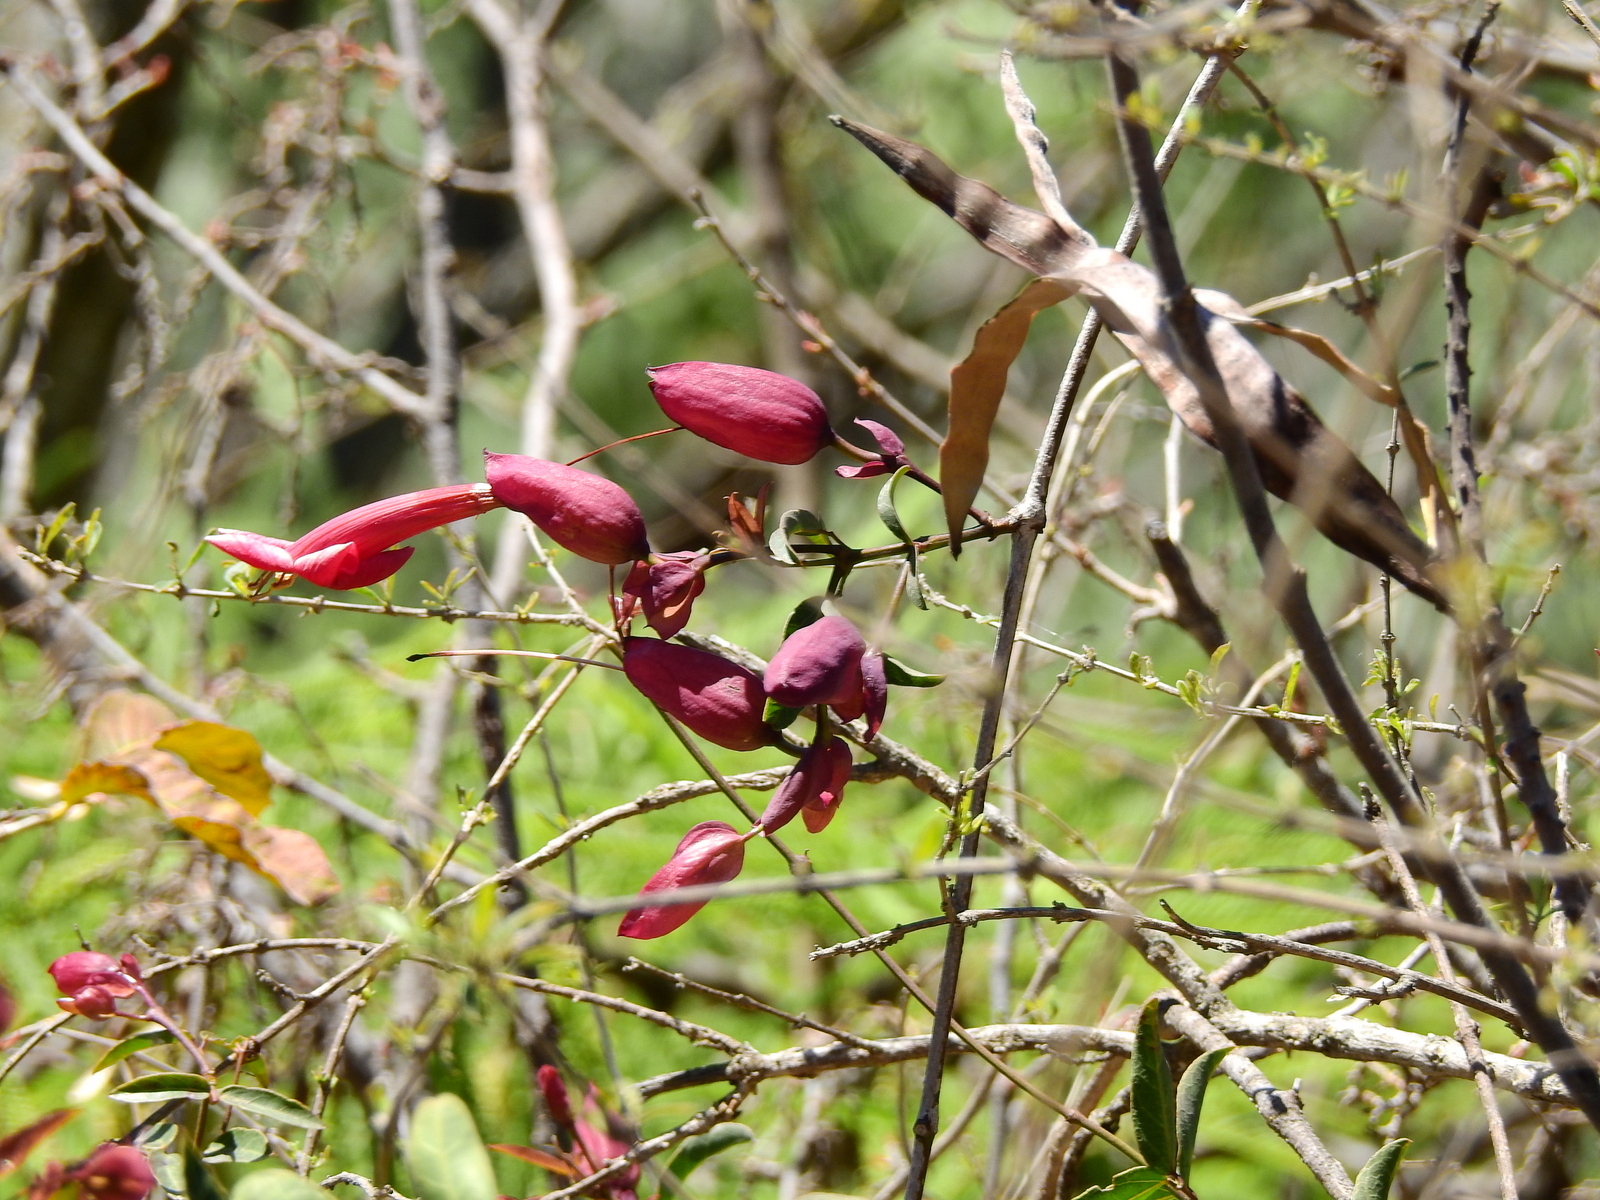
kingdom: Plantae
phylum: Tracheophyta
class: Magnoliopsida
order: Lamiales
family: Bignoniaceae
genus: Dolichandra
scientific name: Dolichandra cynanchoides
